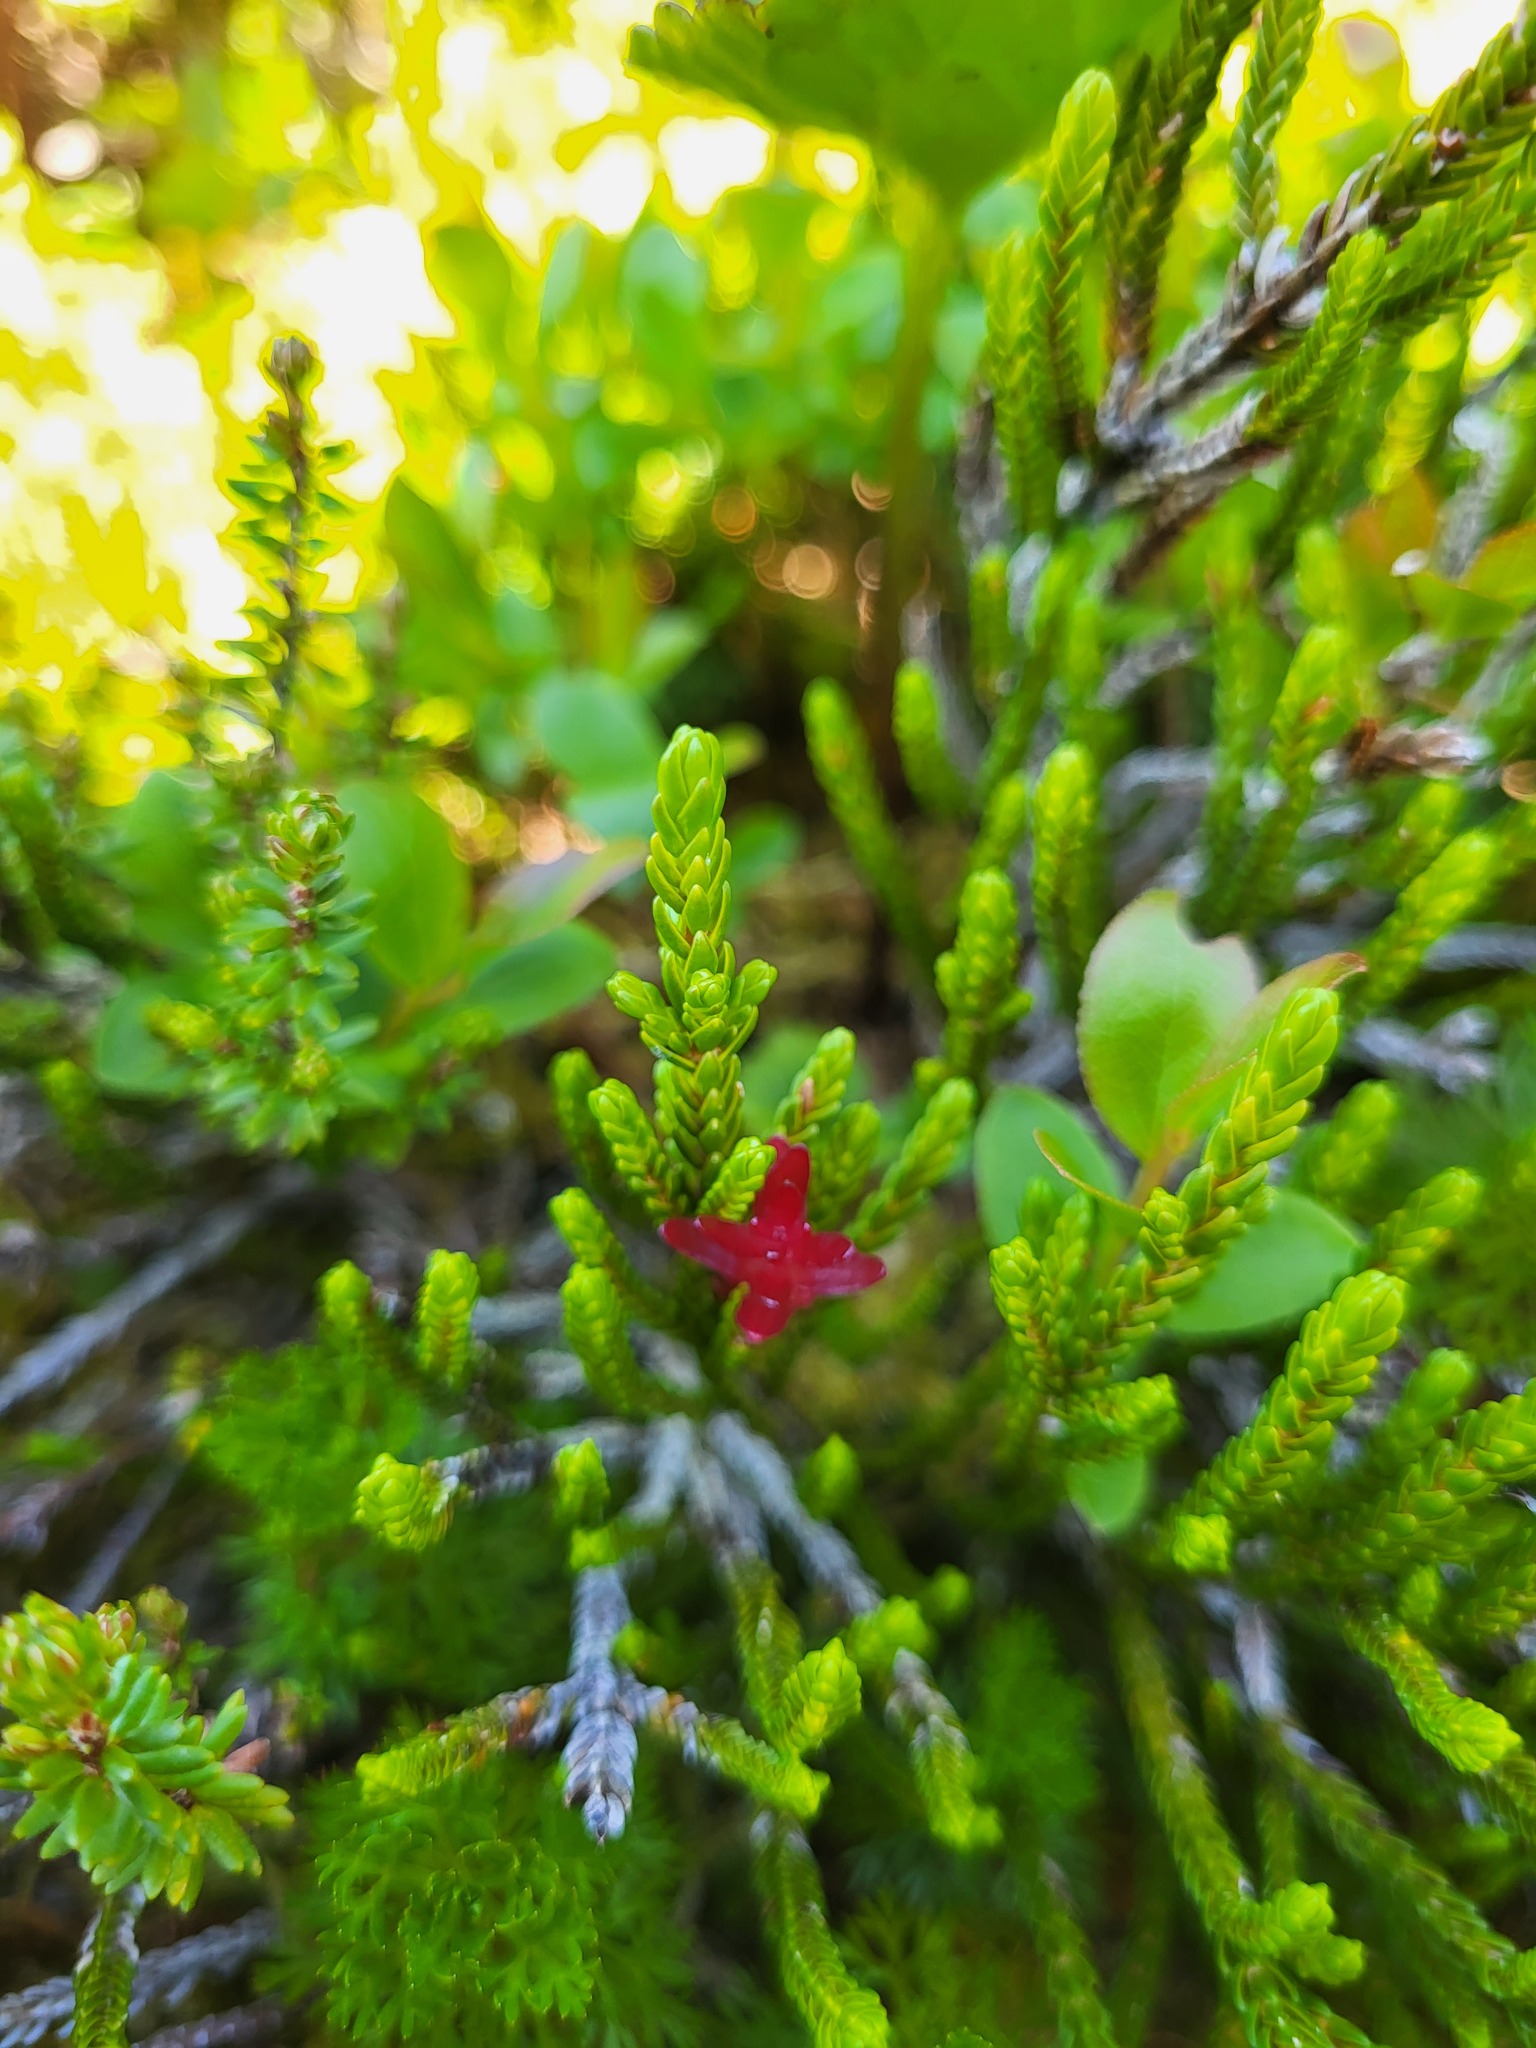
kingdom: Fungi
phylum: Basidiomycota
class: Exobasidiomycetes
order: Exobasidiales
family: Exobasidiaceae
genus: Exobasidium
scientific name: Exobasidium cassiopes
